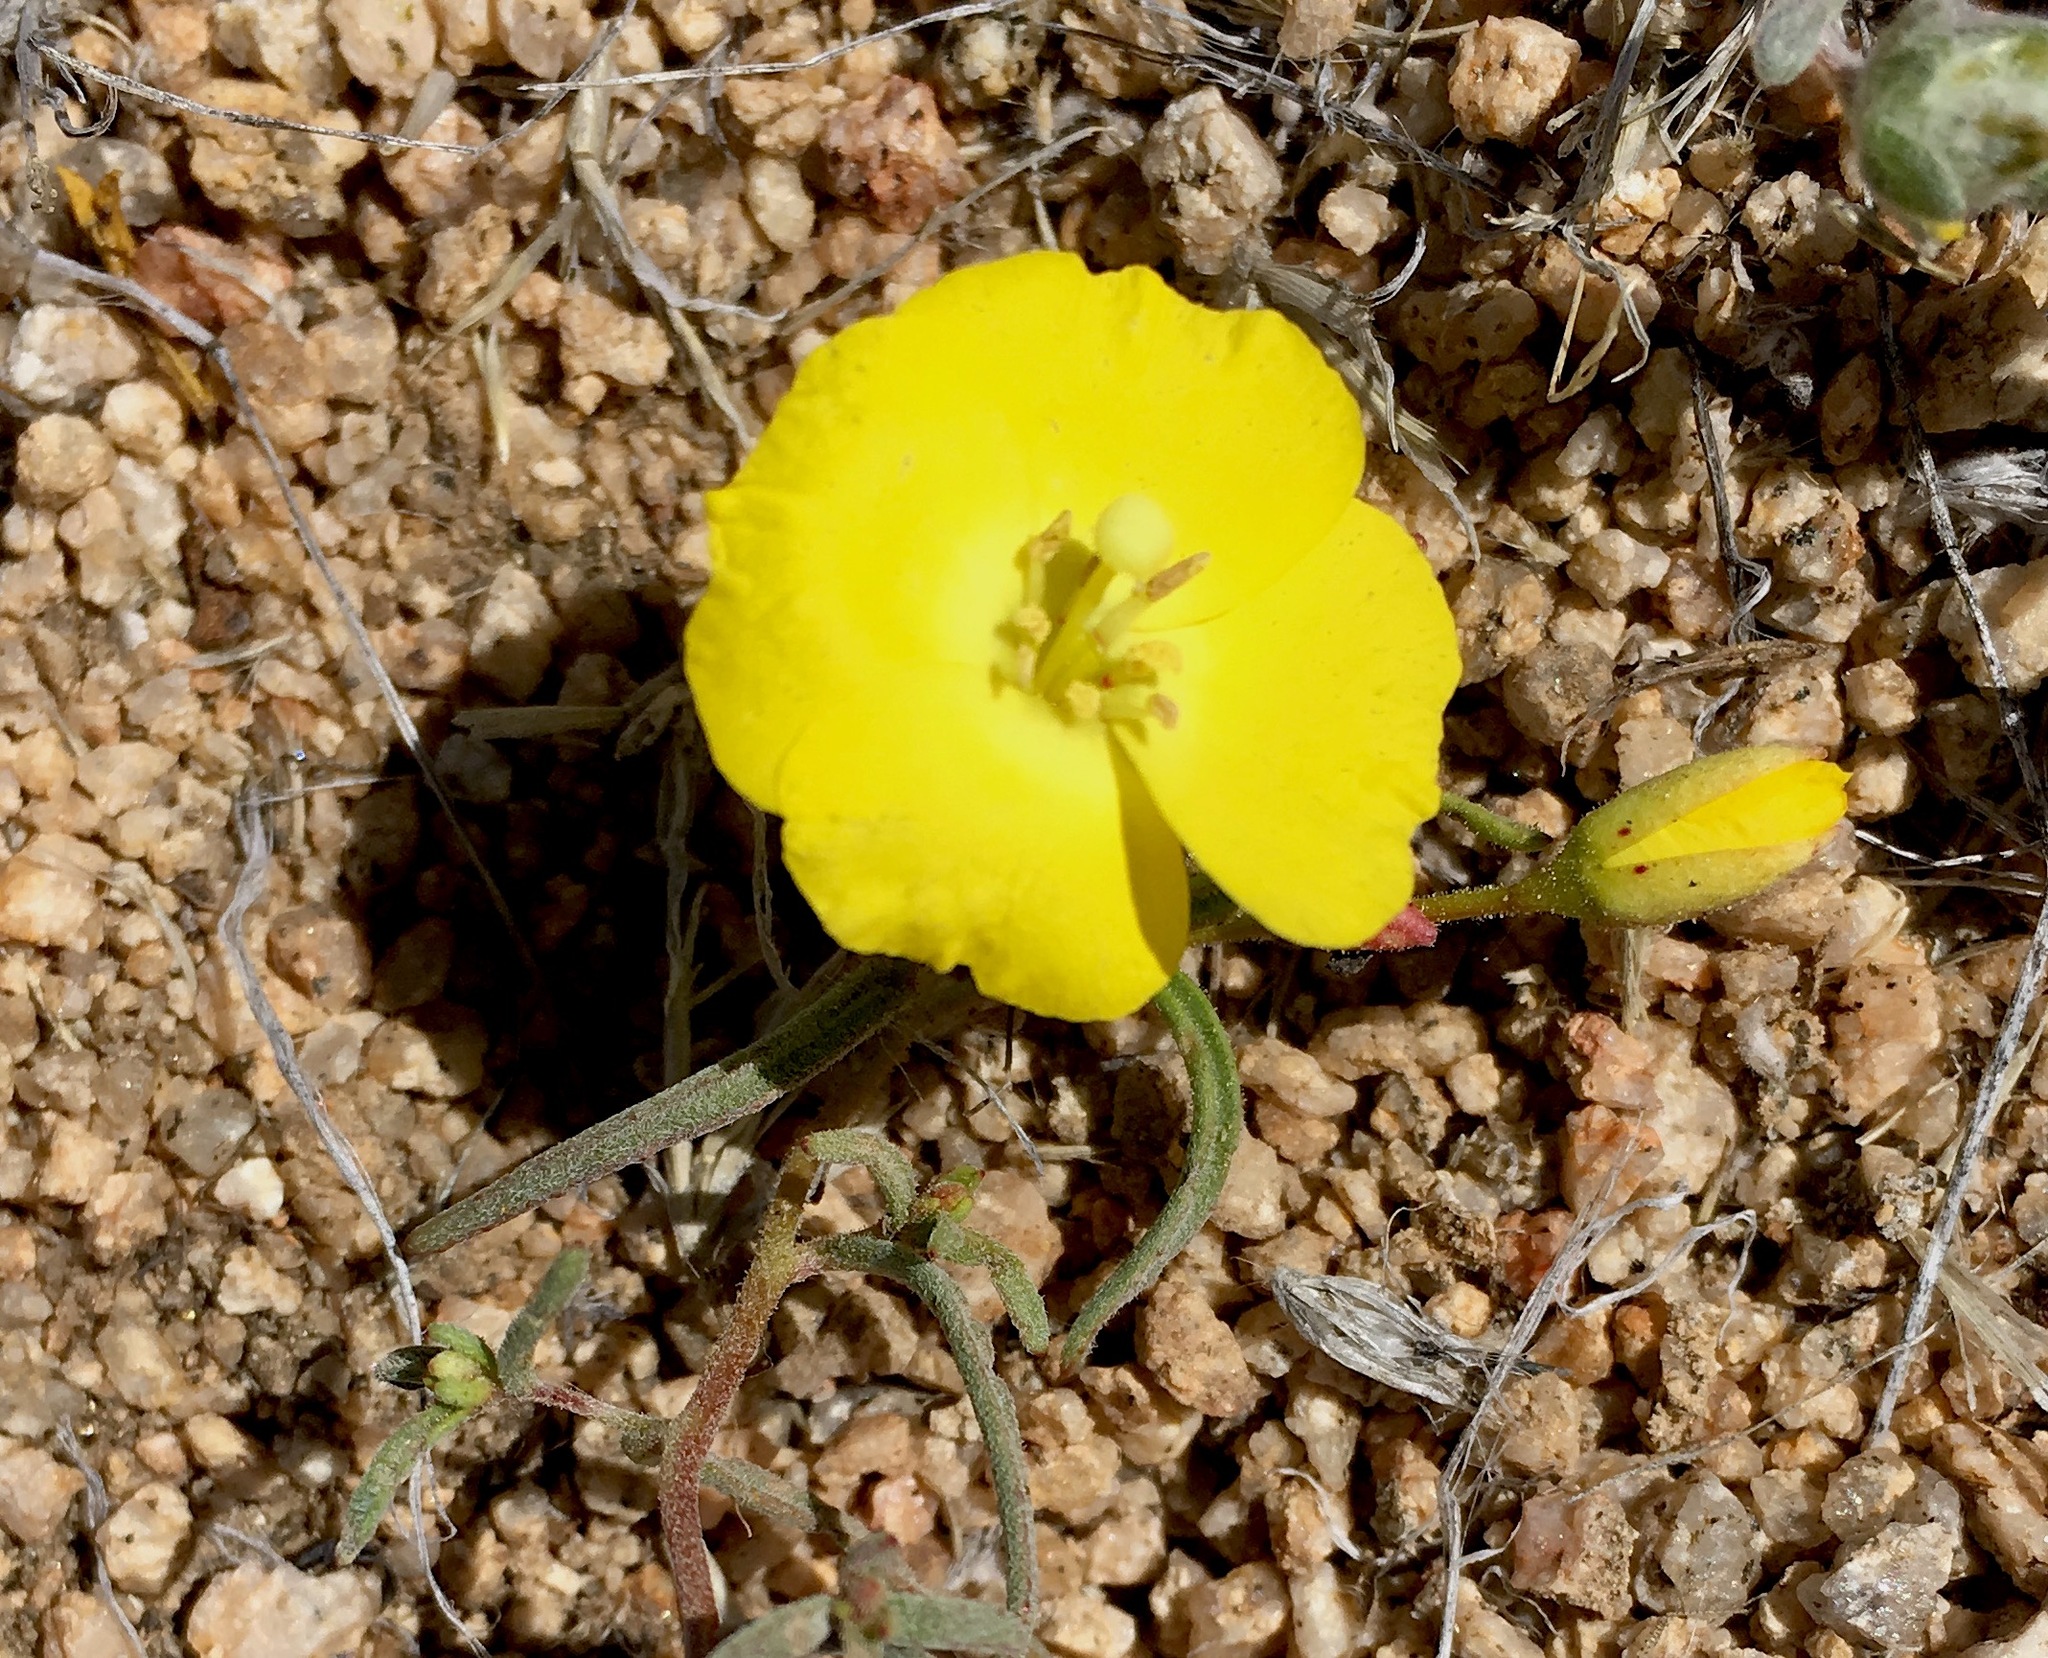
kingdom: Plantae
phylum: Tracheophyta
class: Magnoliopsida
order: Myrtales
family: Onagraceae
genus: Camissonia
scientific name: Camissonia campestris
